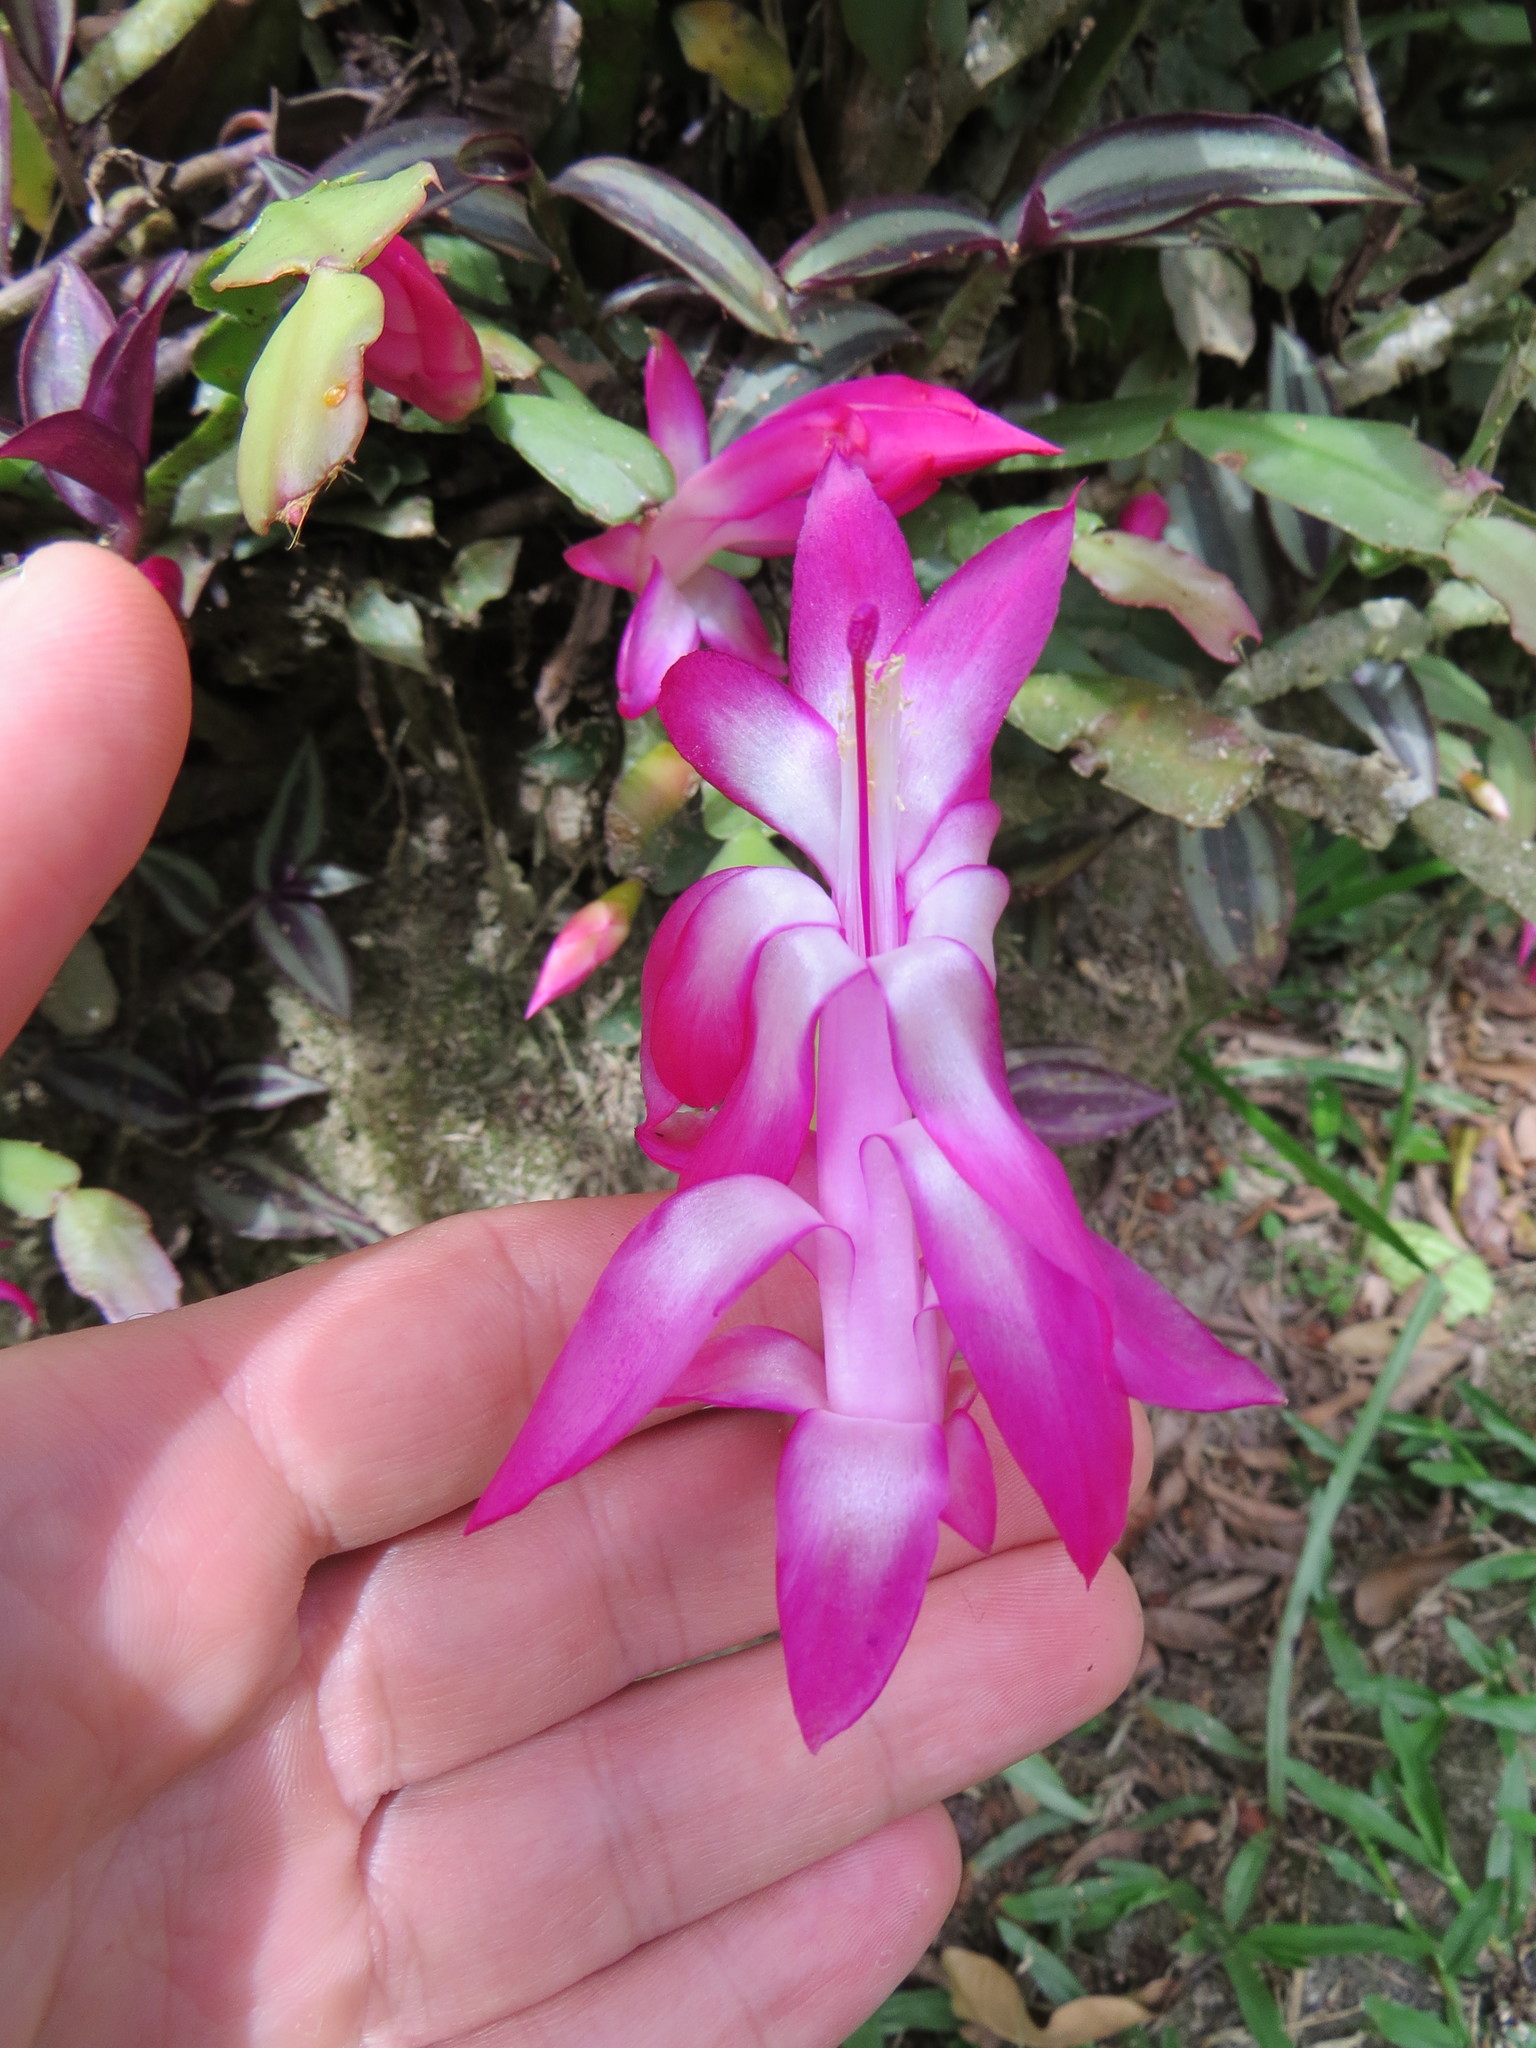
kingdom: Plantae
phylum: Tracheophyta
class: Magnoliopsida
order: Caryophyllales
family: Cactaceae
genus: Schlumbergera
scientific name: Schlumbergera truncata
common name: Thanksgiving cactus
